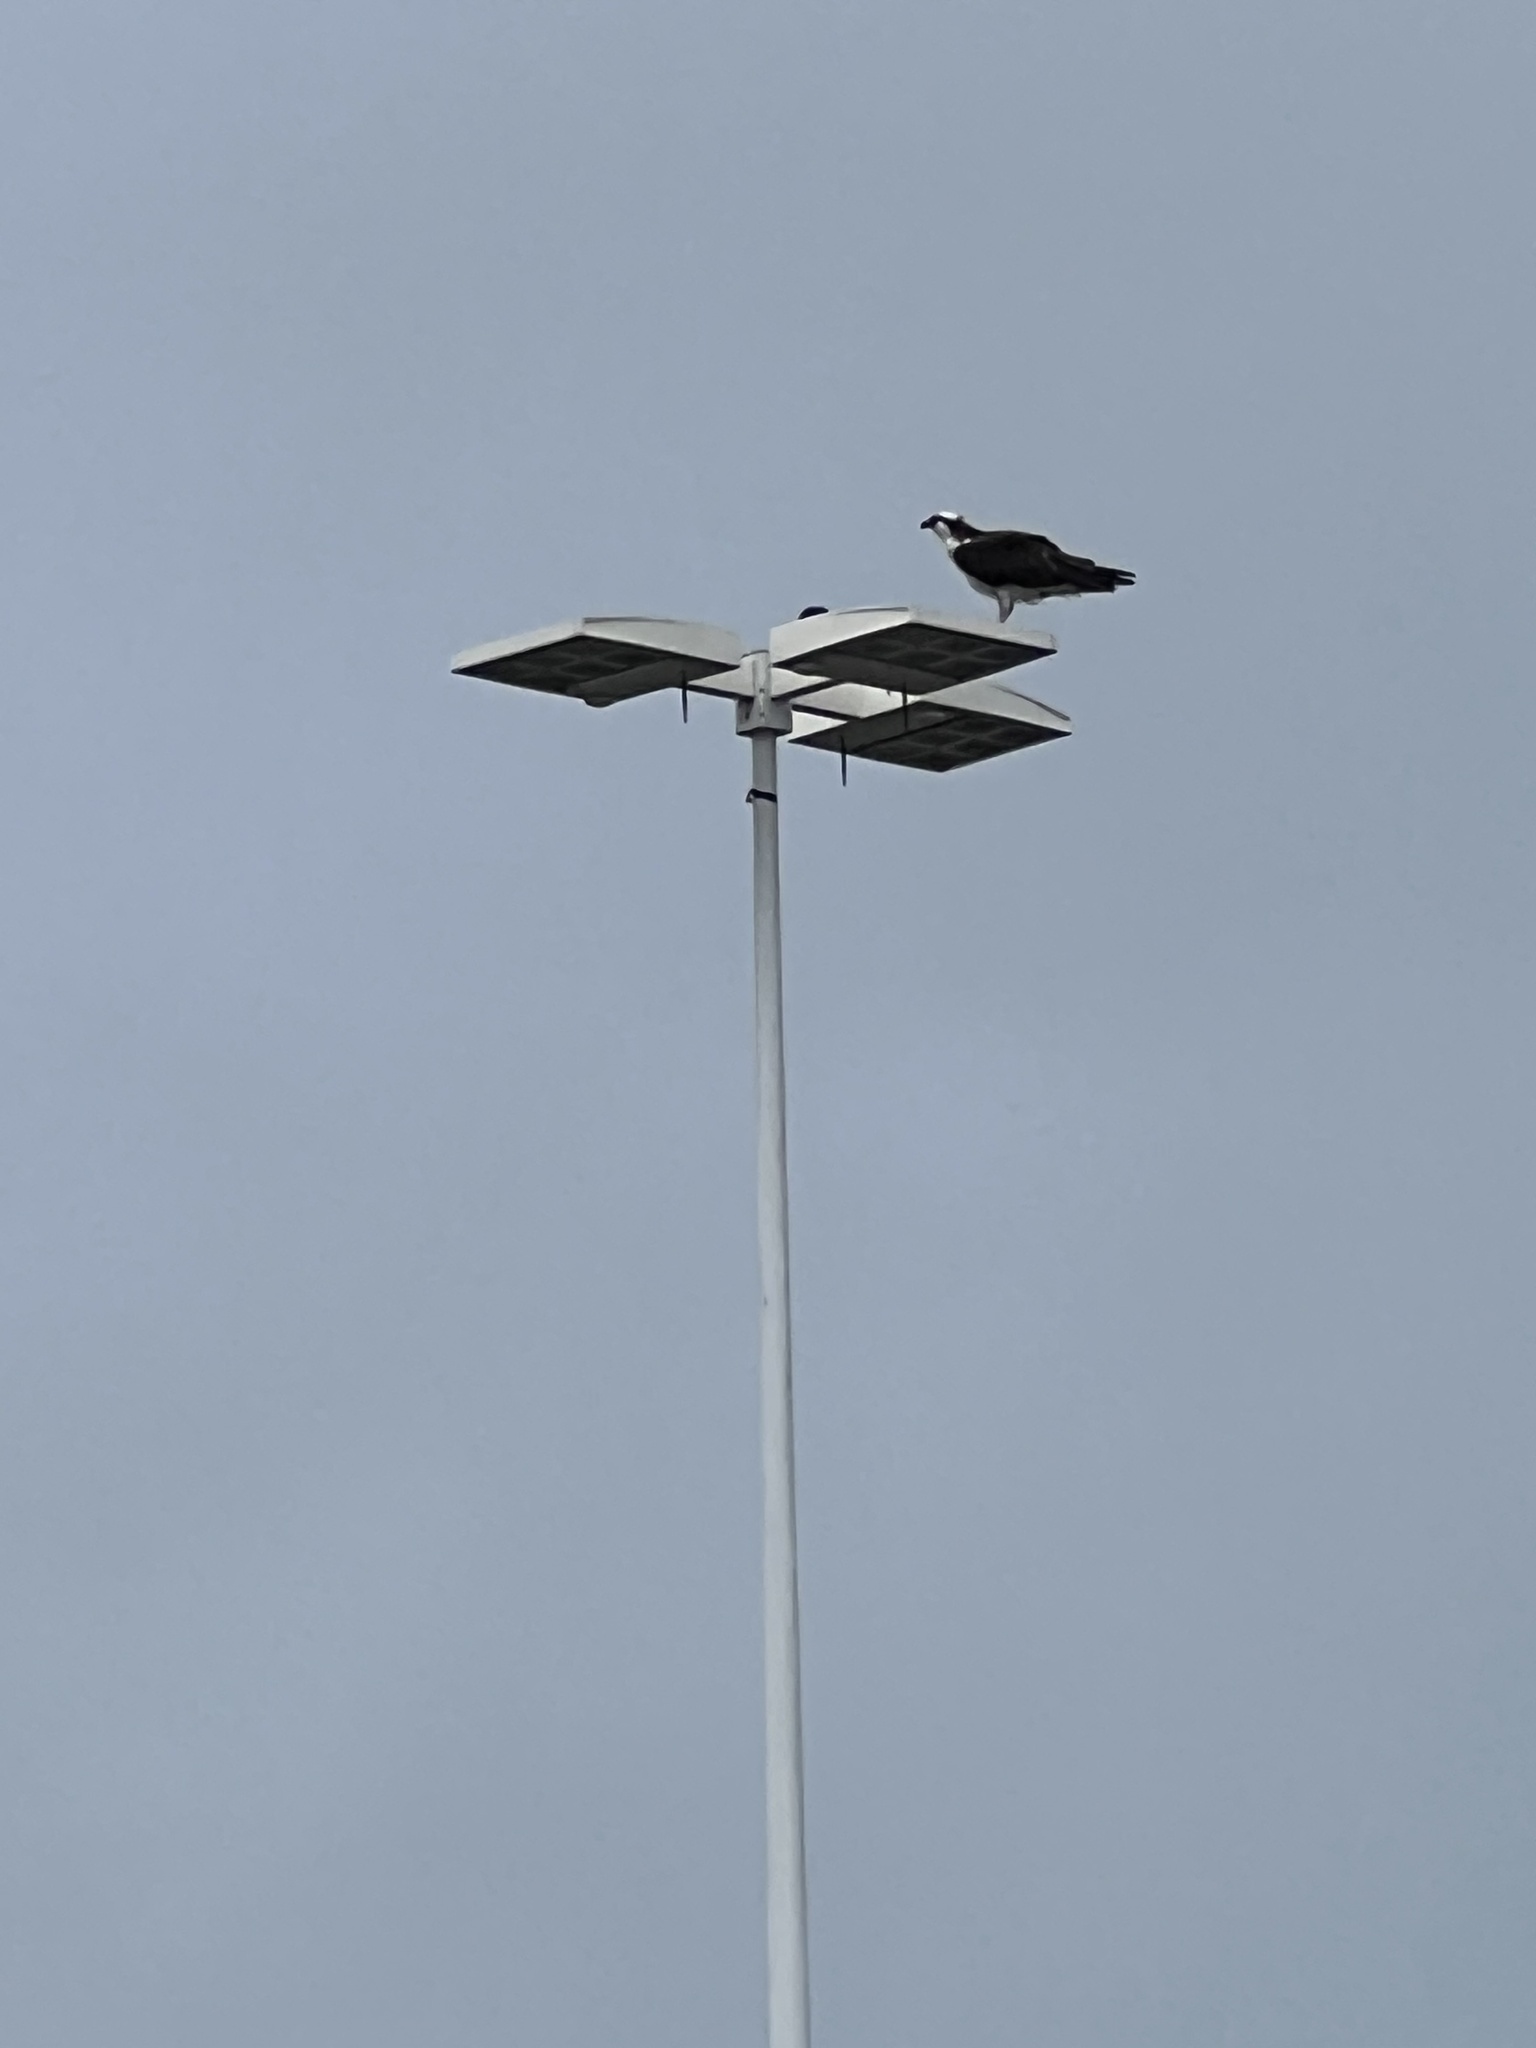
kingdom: Animalia
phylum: Chordata
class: Aves
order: Accipitriformes
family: Pandionidae
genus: Pandion
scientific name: Pandion haliaetus
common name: Osprey
